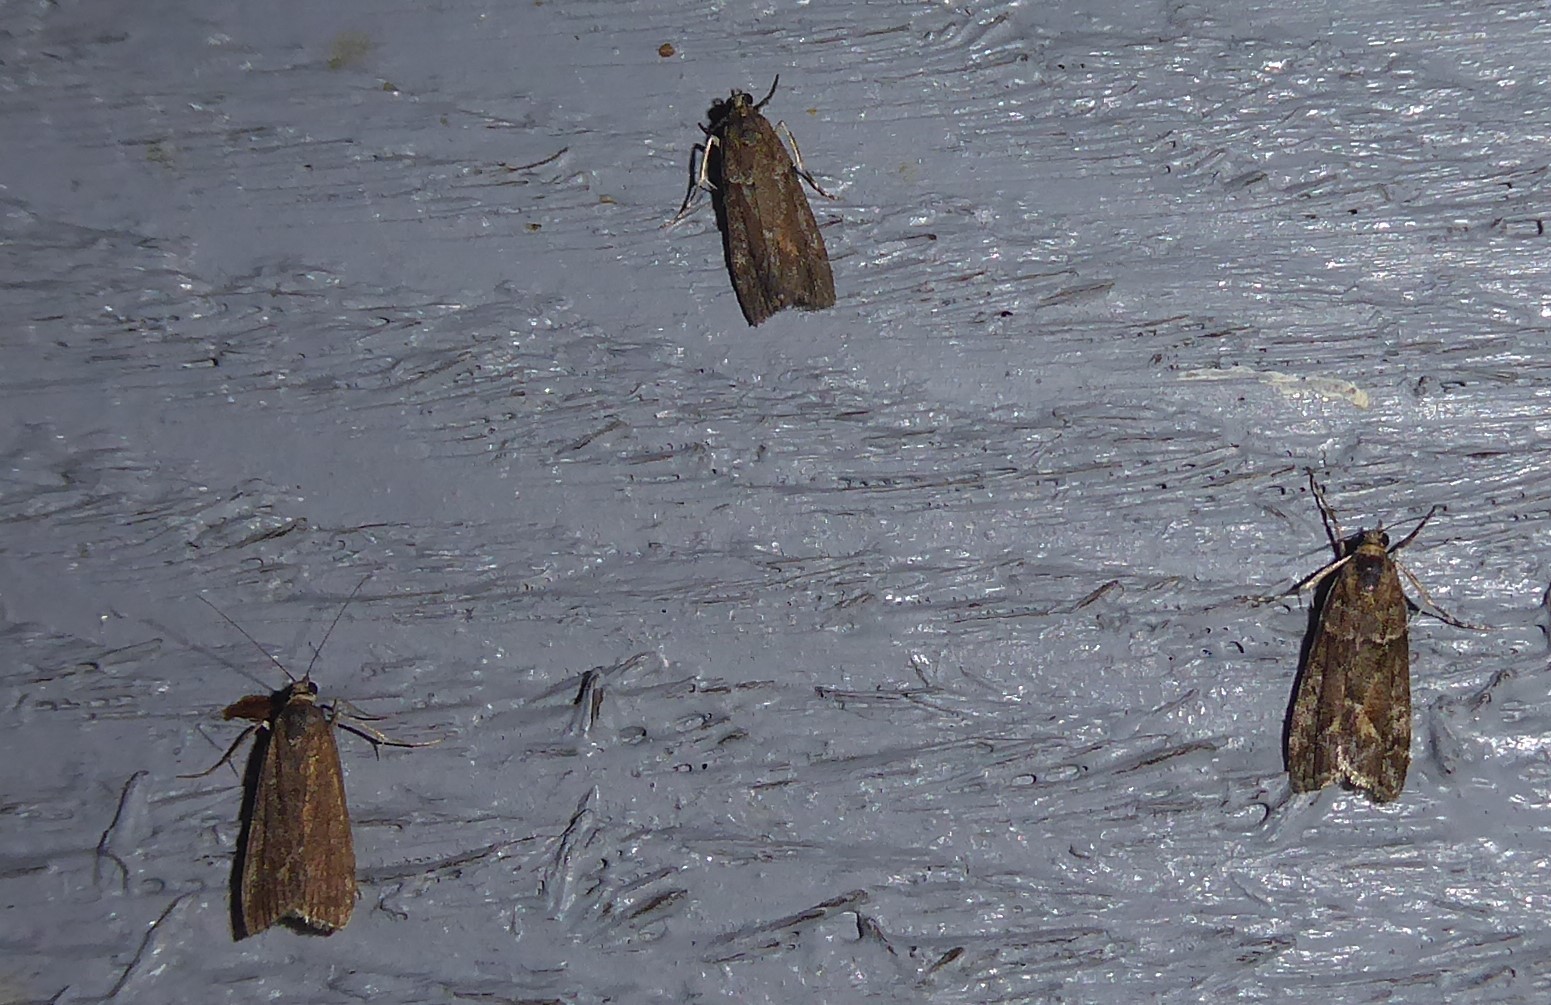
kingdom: Animalia
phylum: Arthropoda
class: Insecta
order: Lepidoptera
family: Crambidae
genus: Eudonia
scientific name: Eudonia submarginalis
